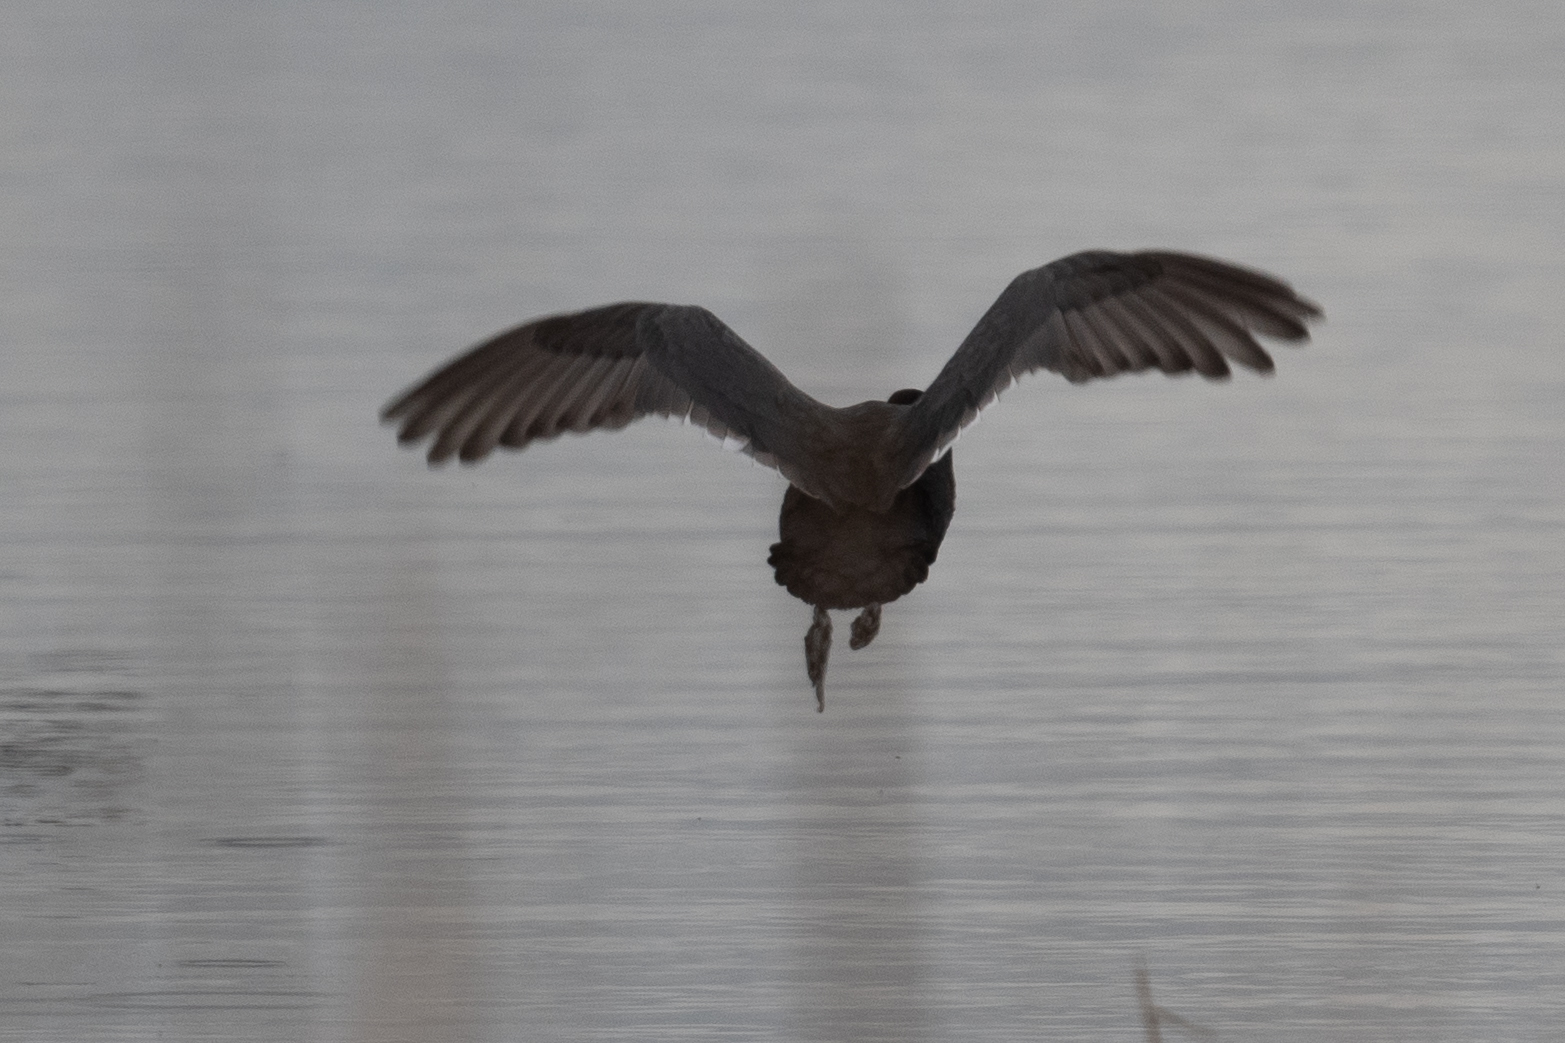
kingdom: Animalia
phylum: Chordata
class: Aves
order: Gruiformes
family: Rallidae
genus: Fulica
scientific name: Fulica americana
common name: American coot
